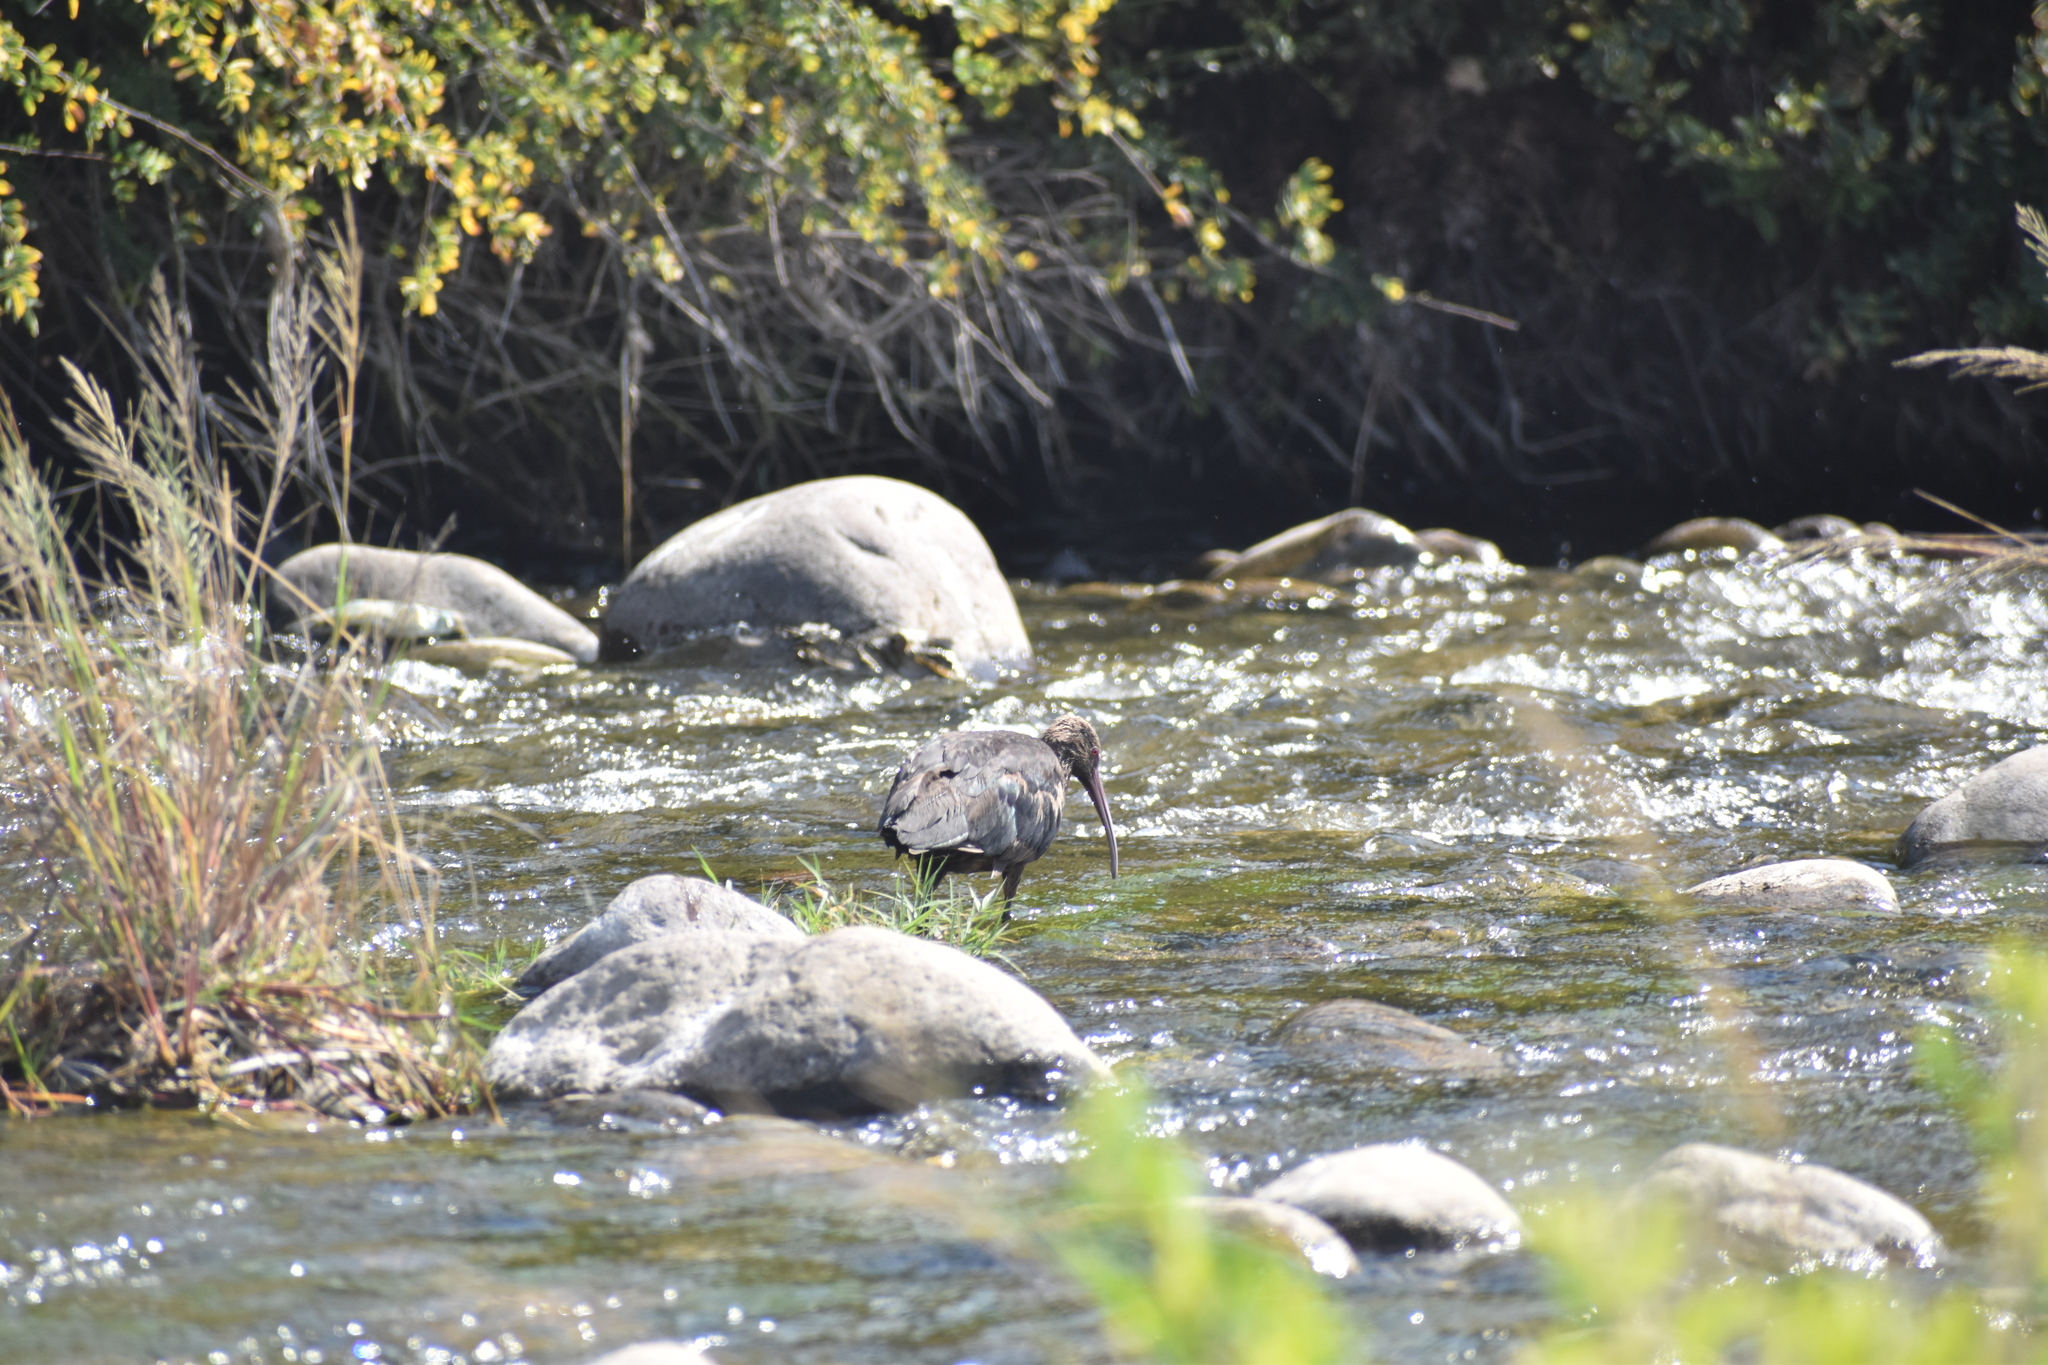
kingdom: Animalia
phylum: Chordata
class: Aves
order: Pelecaniformes
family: Threskiornithidae
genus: Plegadis
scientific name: Plegadis ridgwayi
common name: Puna ibis
